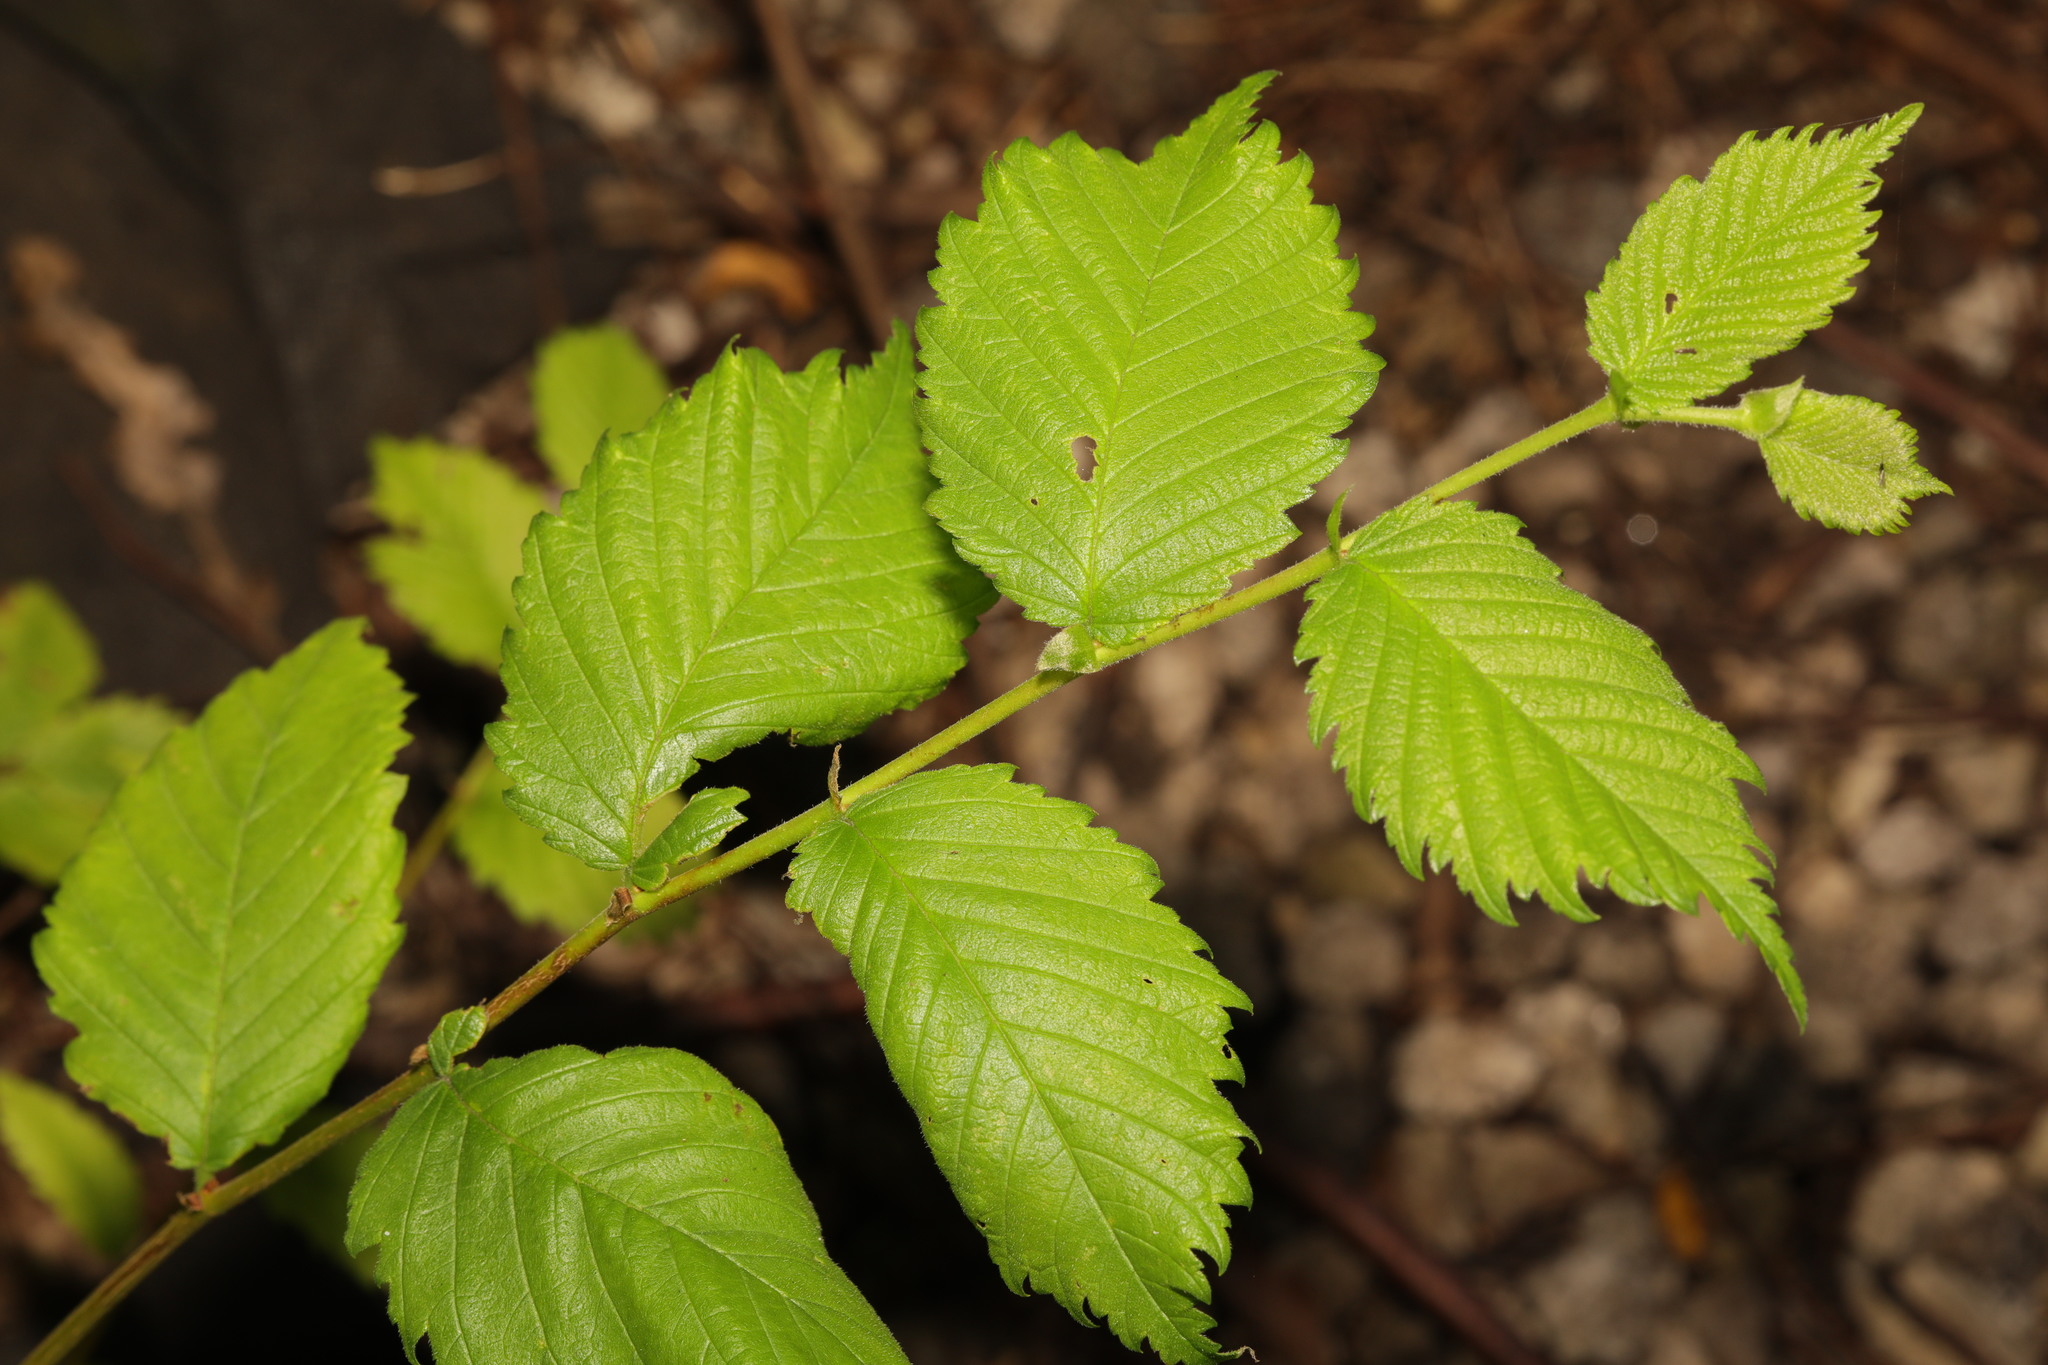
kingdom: Plantae
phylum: Tracheophyta
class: Magnoliopsida
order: Rosales
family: Ulmaceae
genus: Ulmus
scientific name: Ulmus glabra
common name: Wych elm
